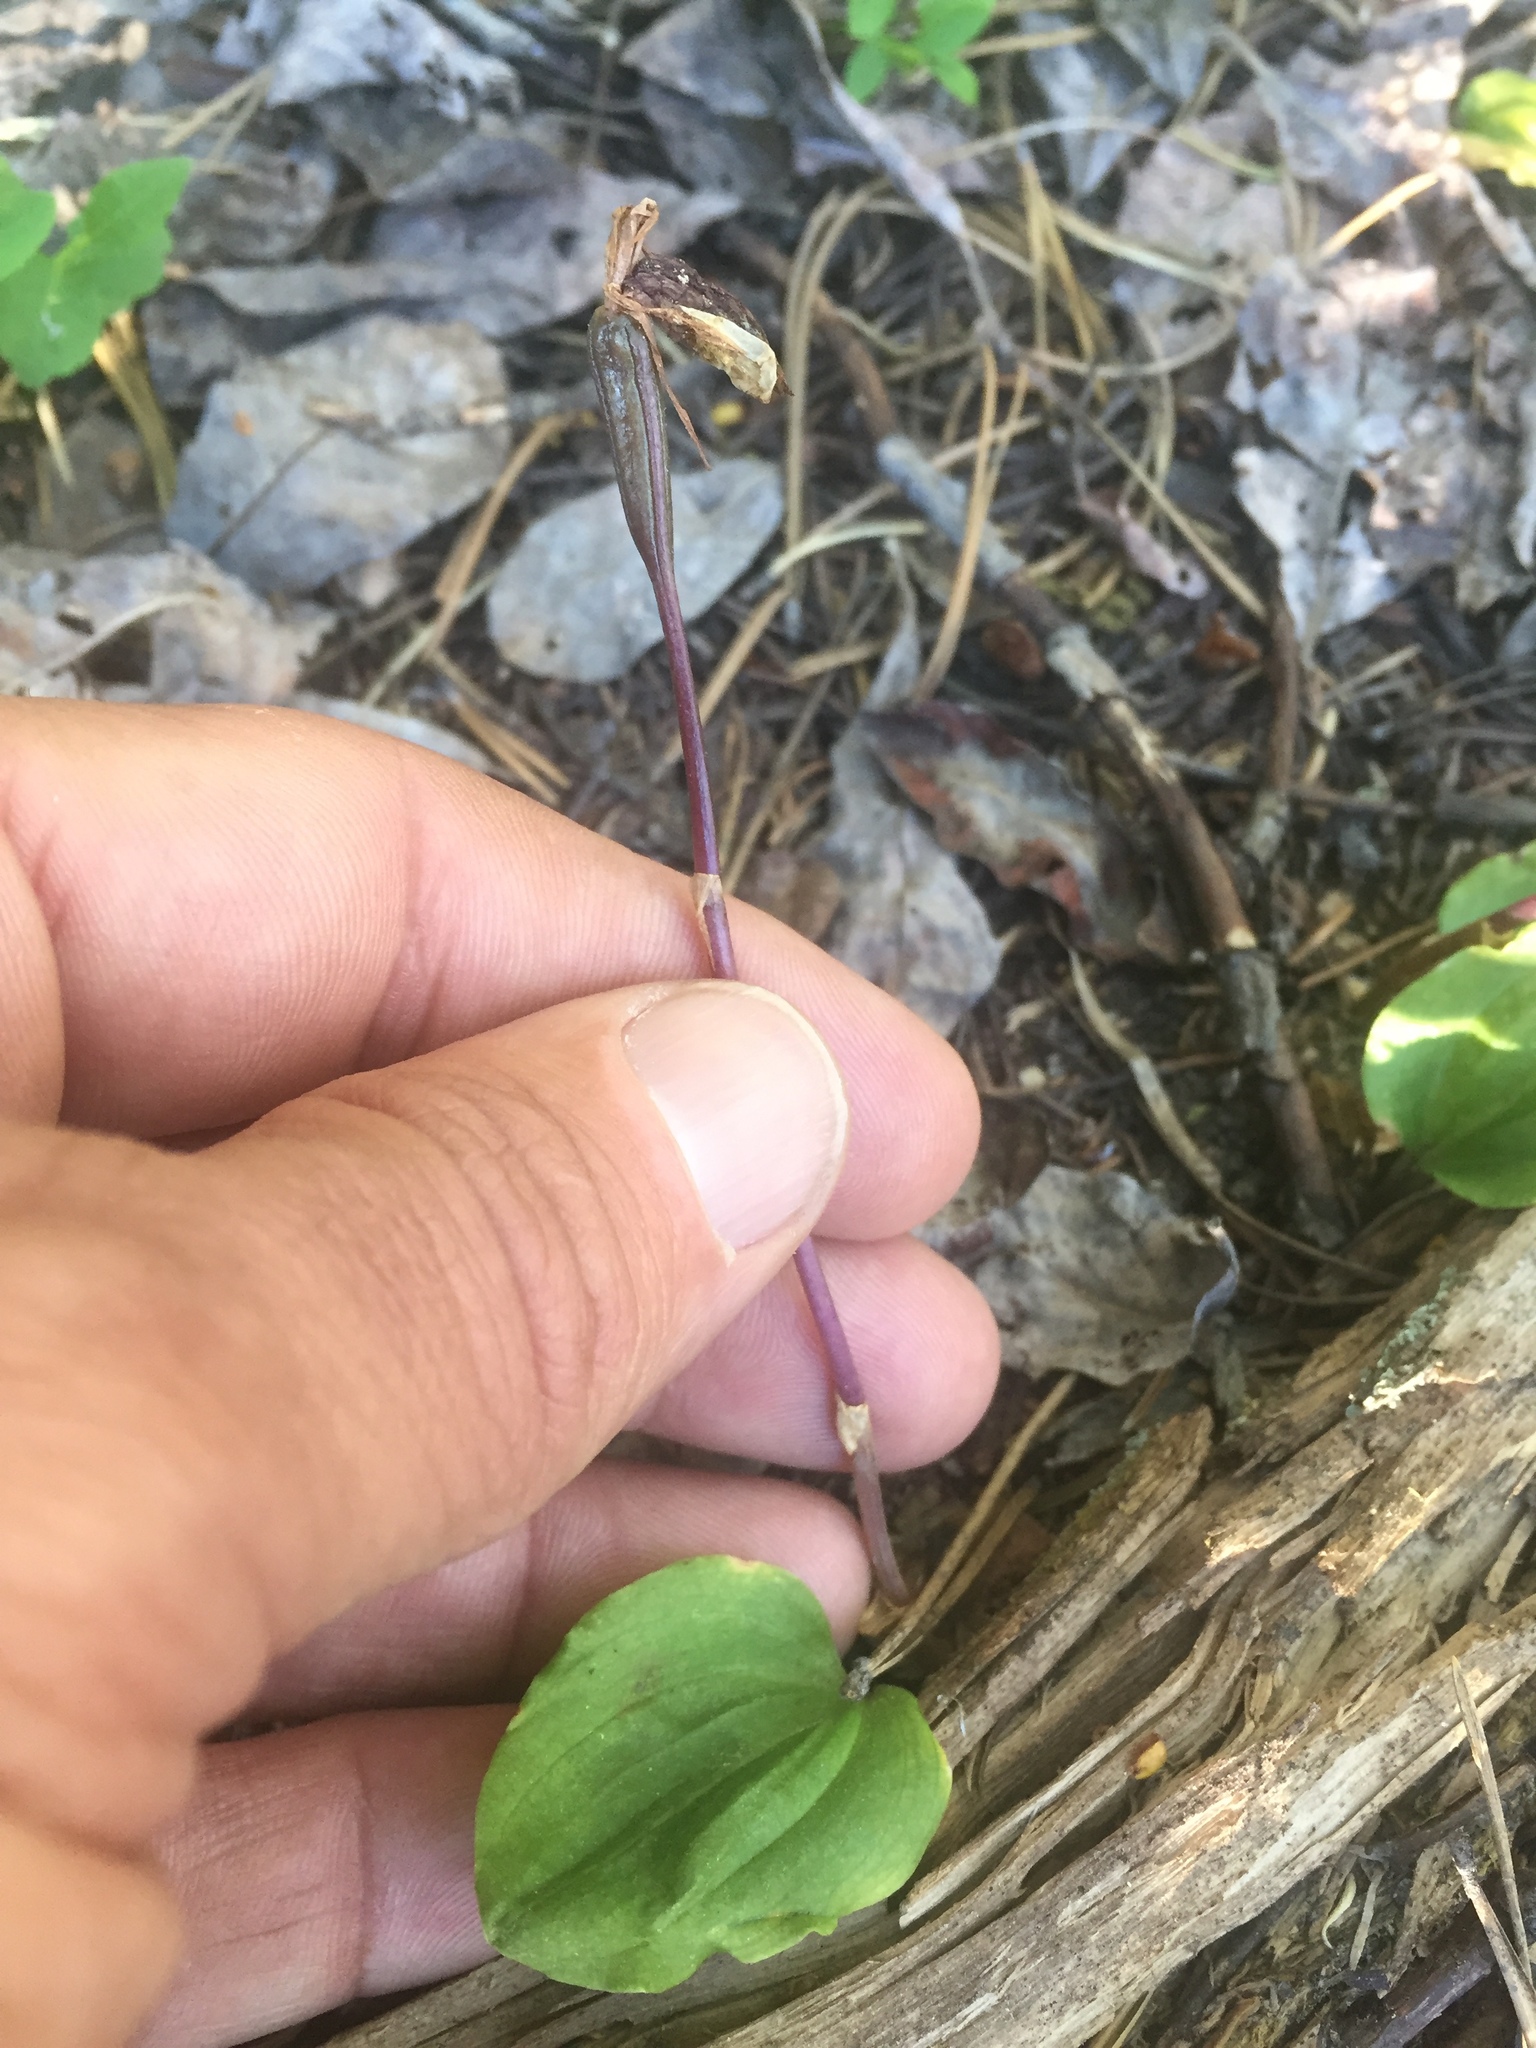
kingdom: Plantae
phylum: Tracheophyta
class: Liliopsida
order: Asparagales
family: Orchidaceae
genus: Calypso
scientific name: Calypso bulbosa
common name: Calypso
